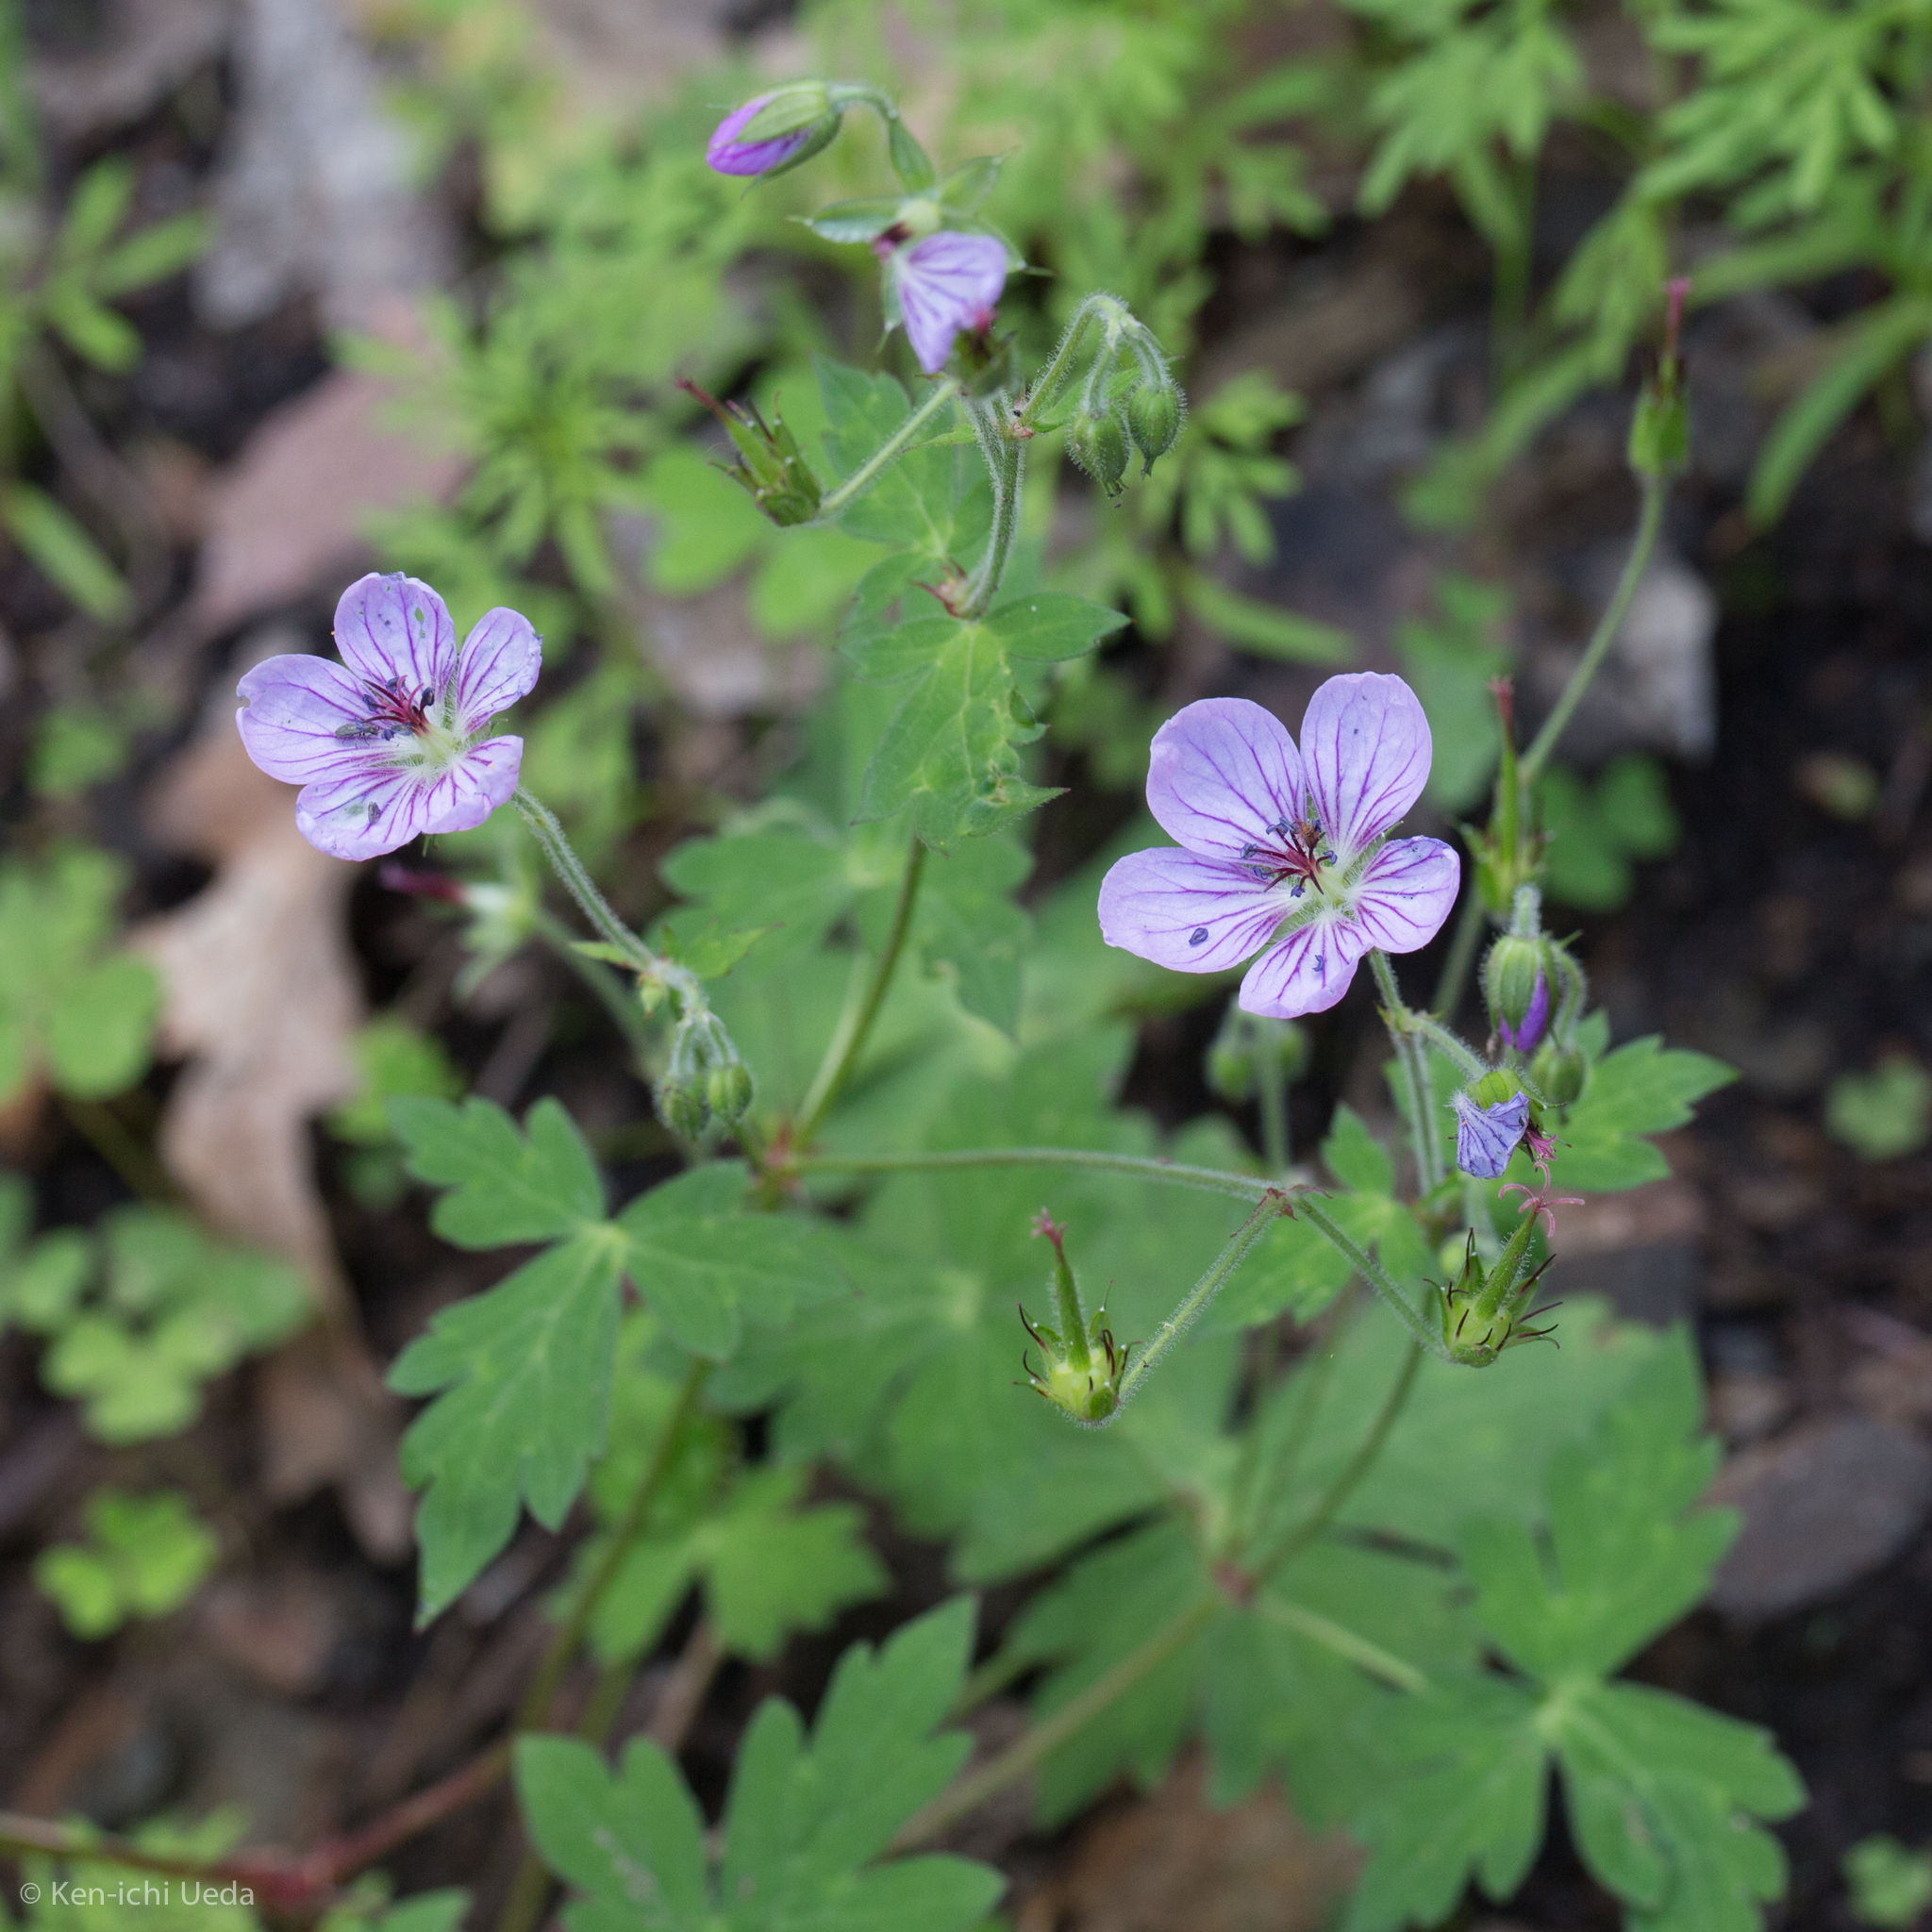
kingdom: Plantae
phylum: Tracheophyta
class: Magnoliopsida
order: Geraniales
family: Geraniaceae
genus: Geranium
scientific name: Geranium richardsonii
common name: Richardson's crane's-bill
